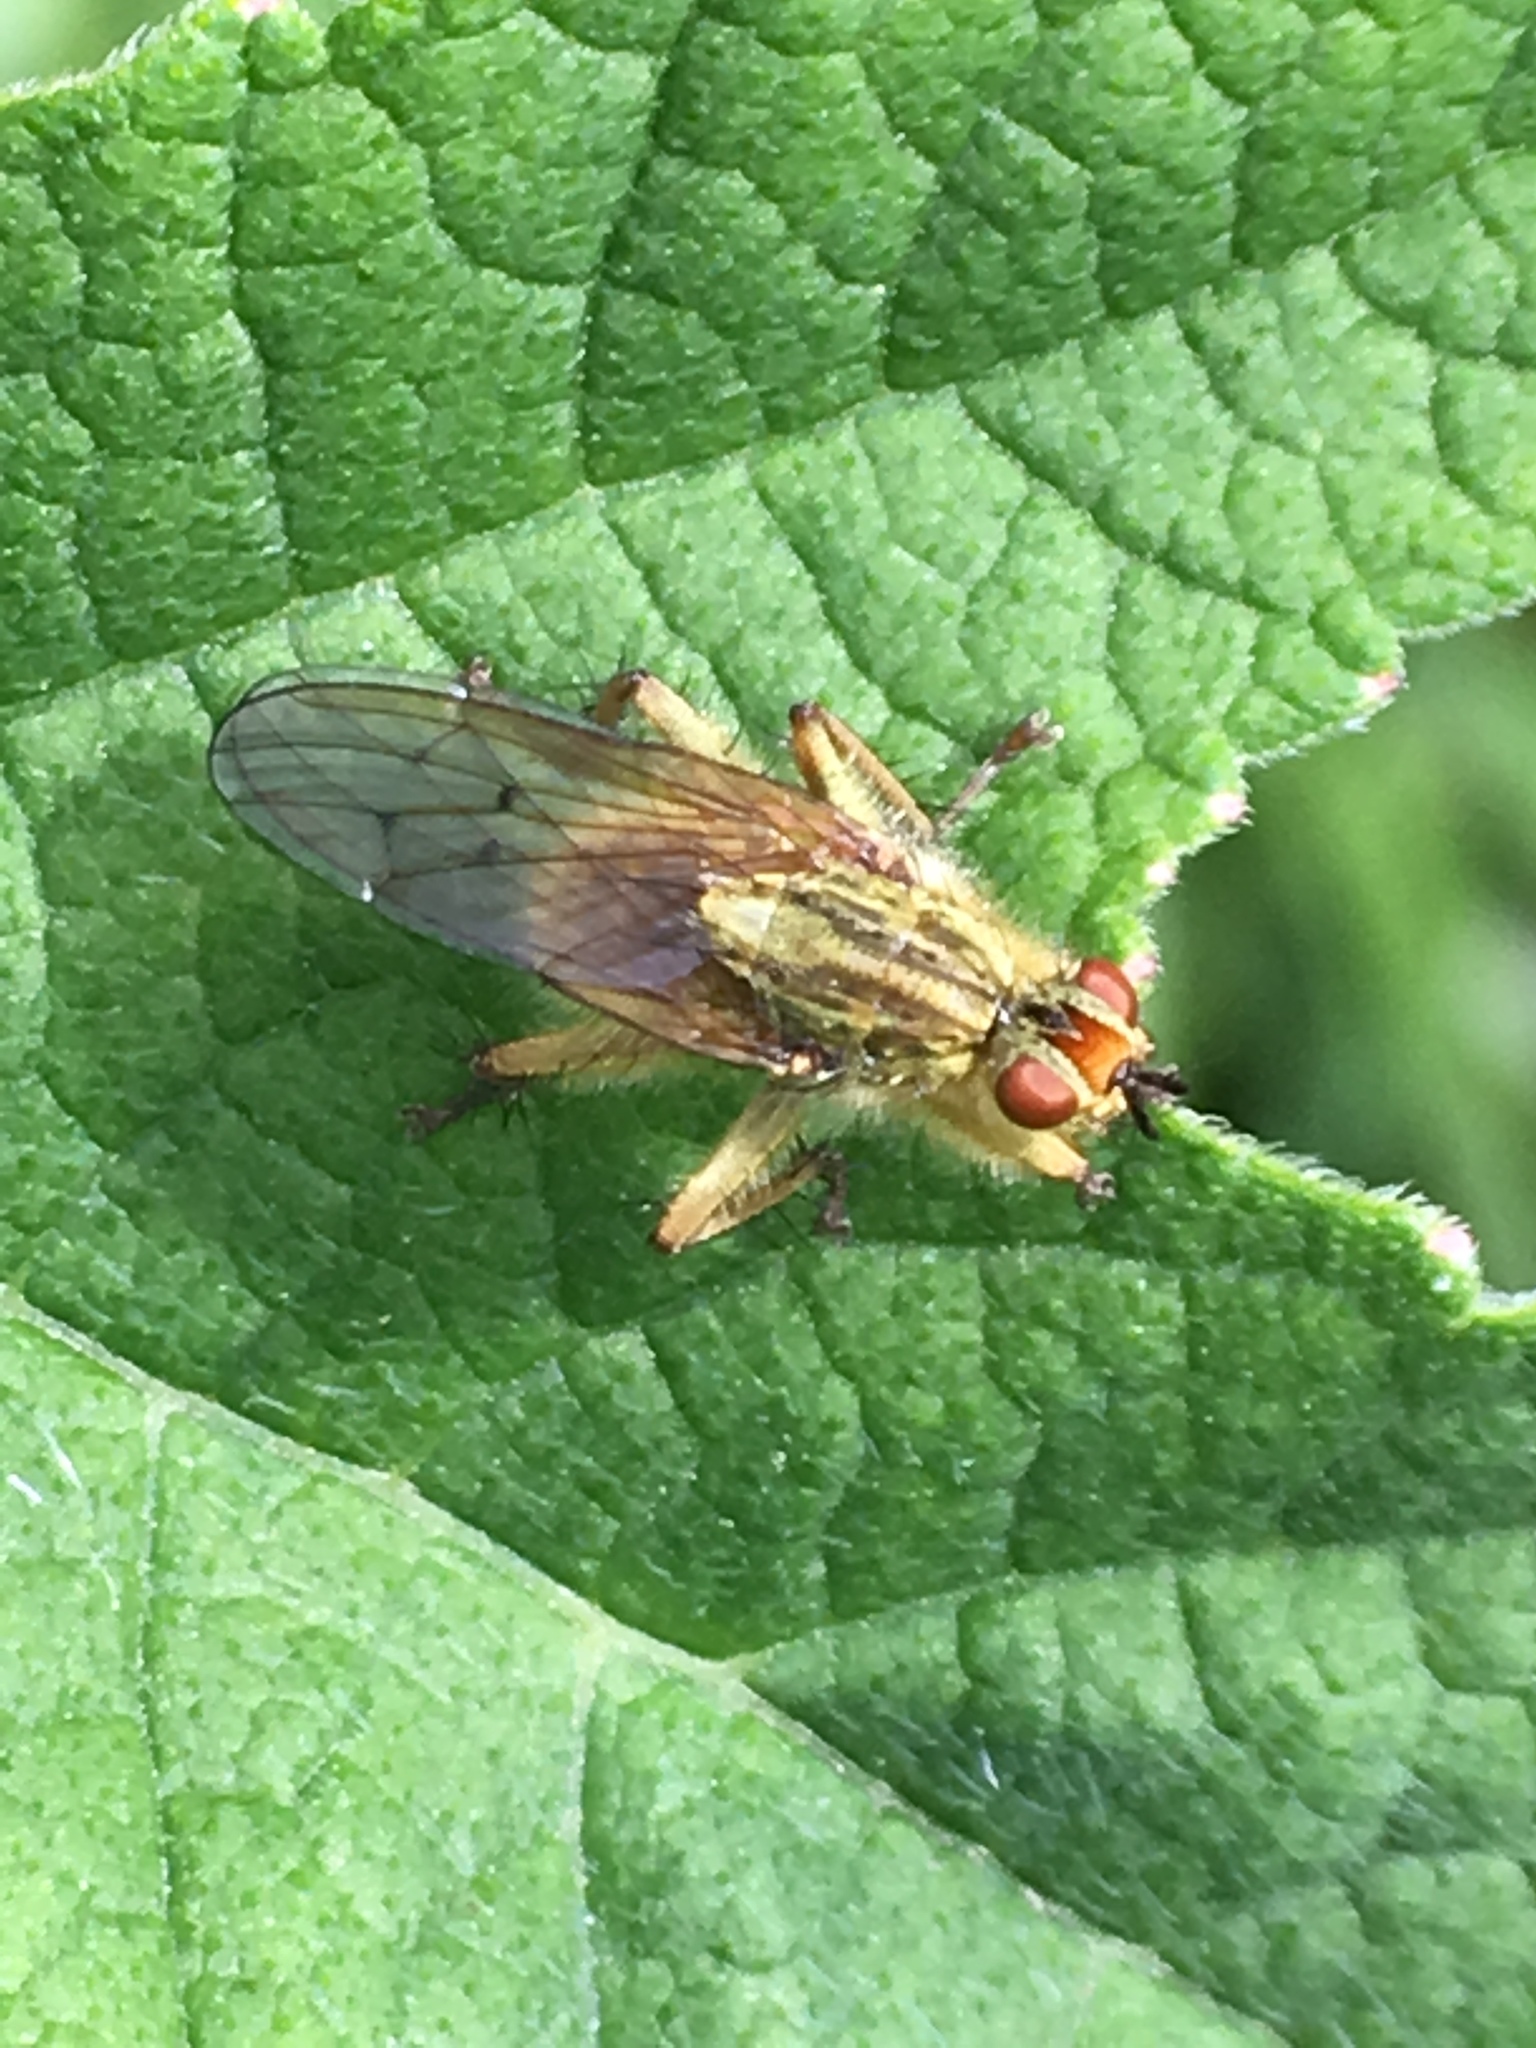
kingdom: Animalia
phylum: Arthropoda
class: Insecta
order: Diptera
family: Scathophagidae
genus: Scathophaga
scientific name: Scathophaga stercoraria
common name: Yellow dung fly
